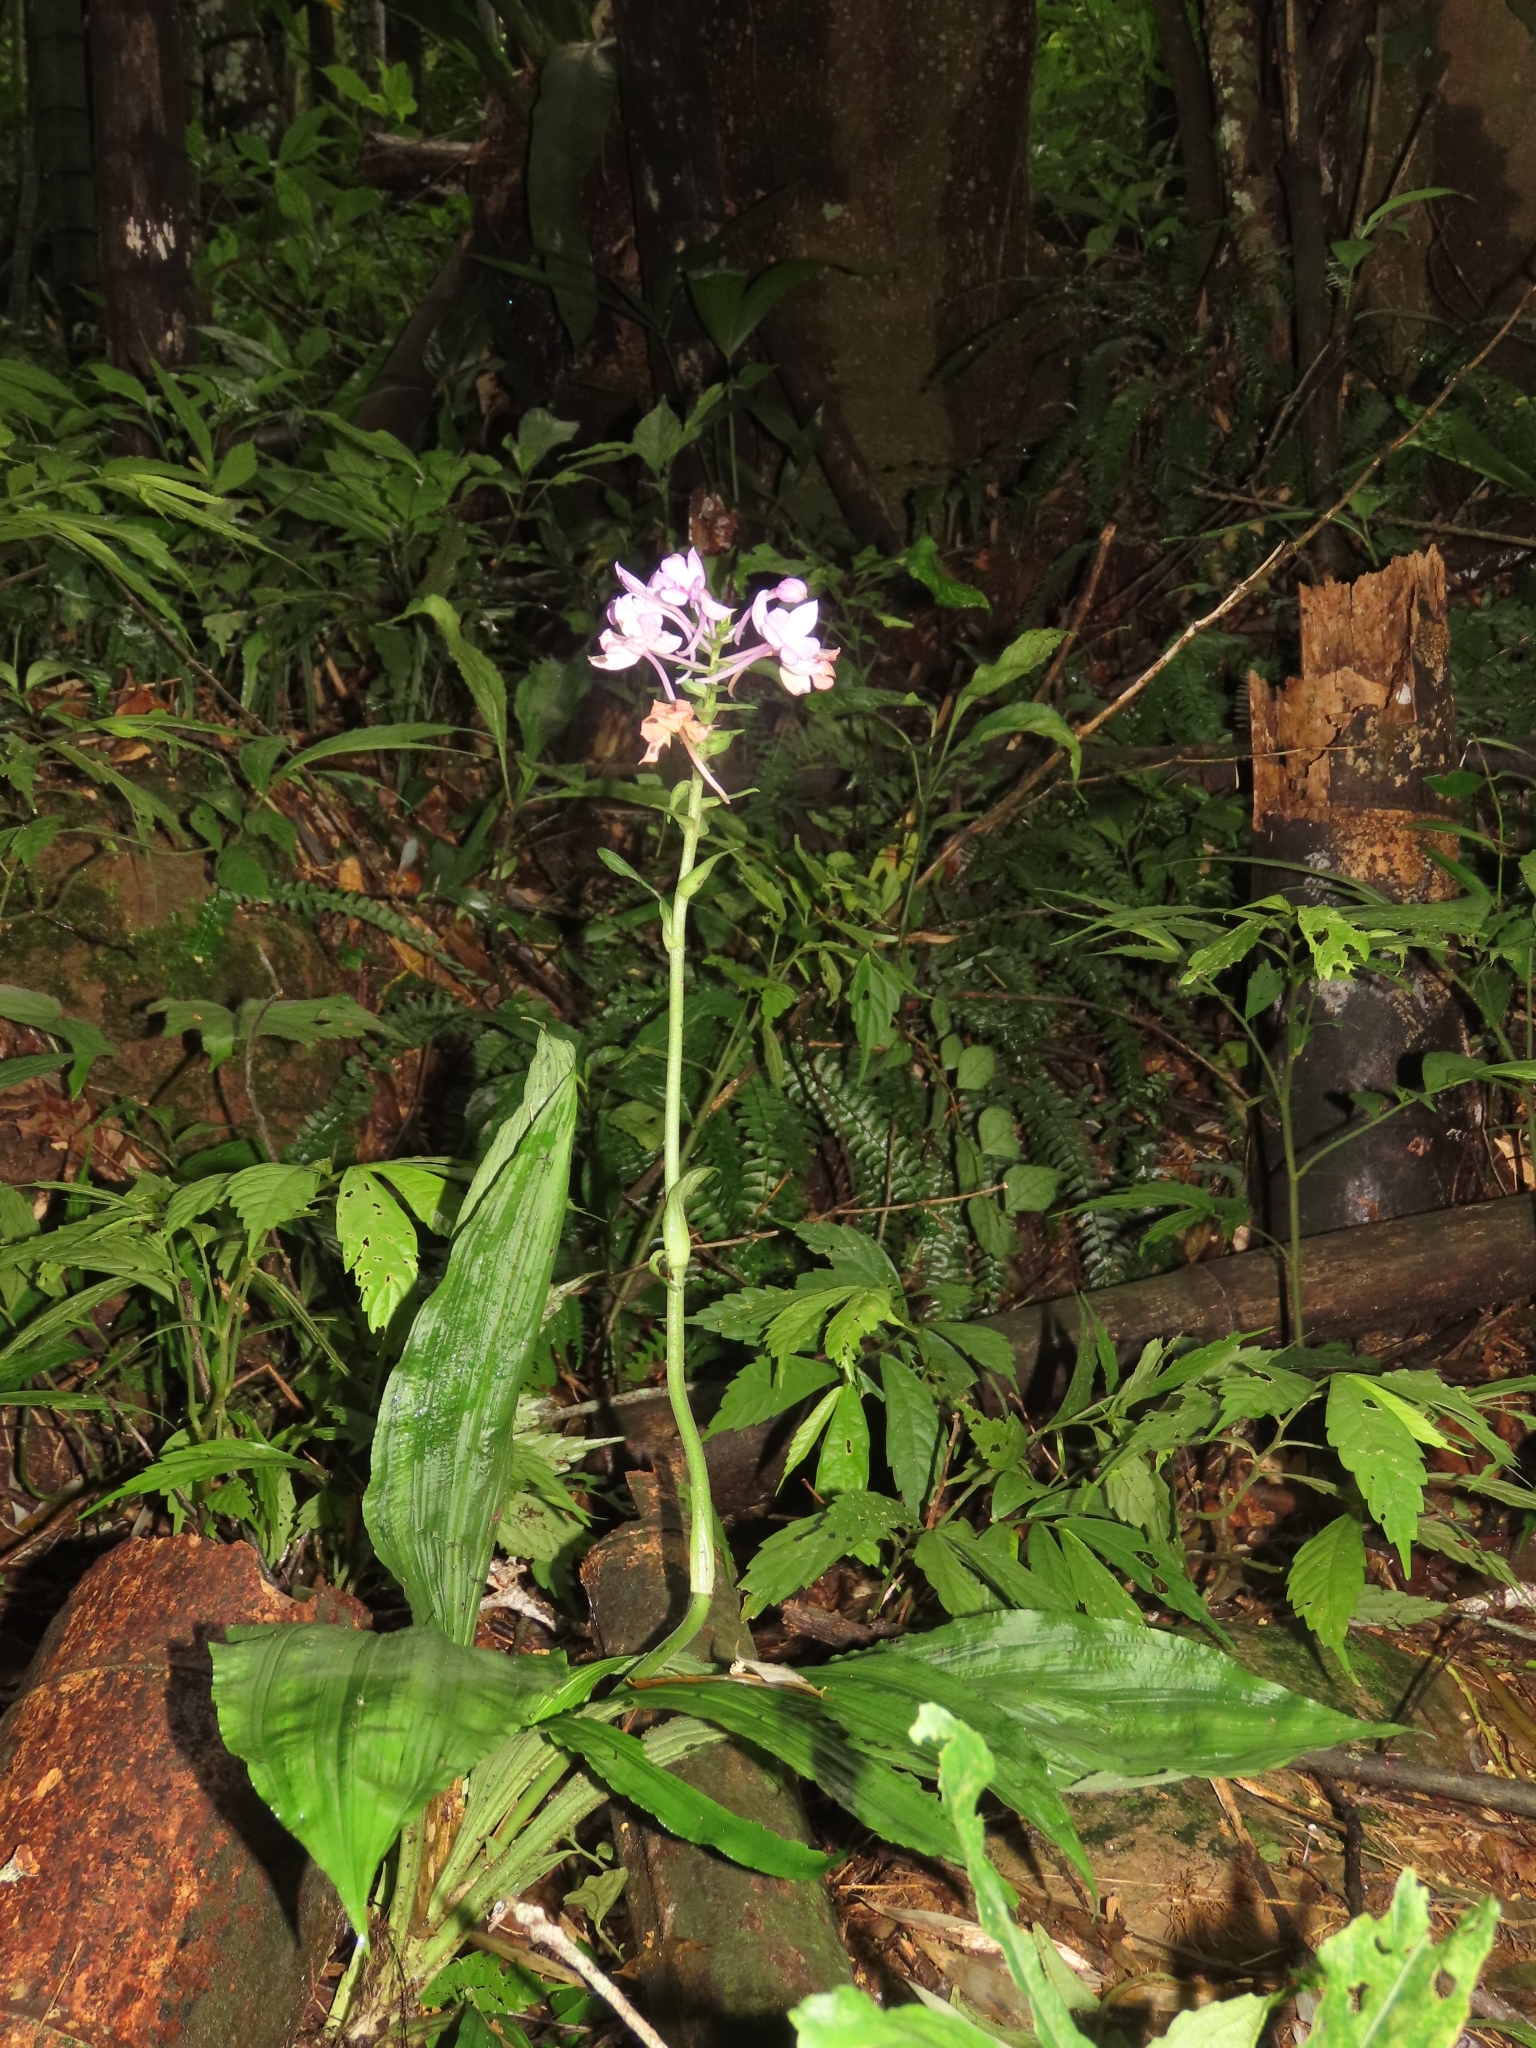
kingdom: Plantae
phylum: Tracheophyta
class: Liliopsida
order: Asparagales
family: Orchidaceae
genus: Calanthe
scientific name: Calanthe masuca
